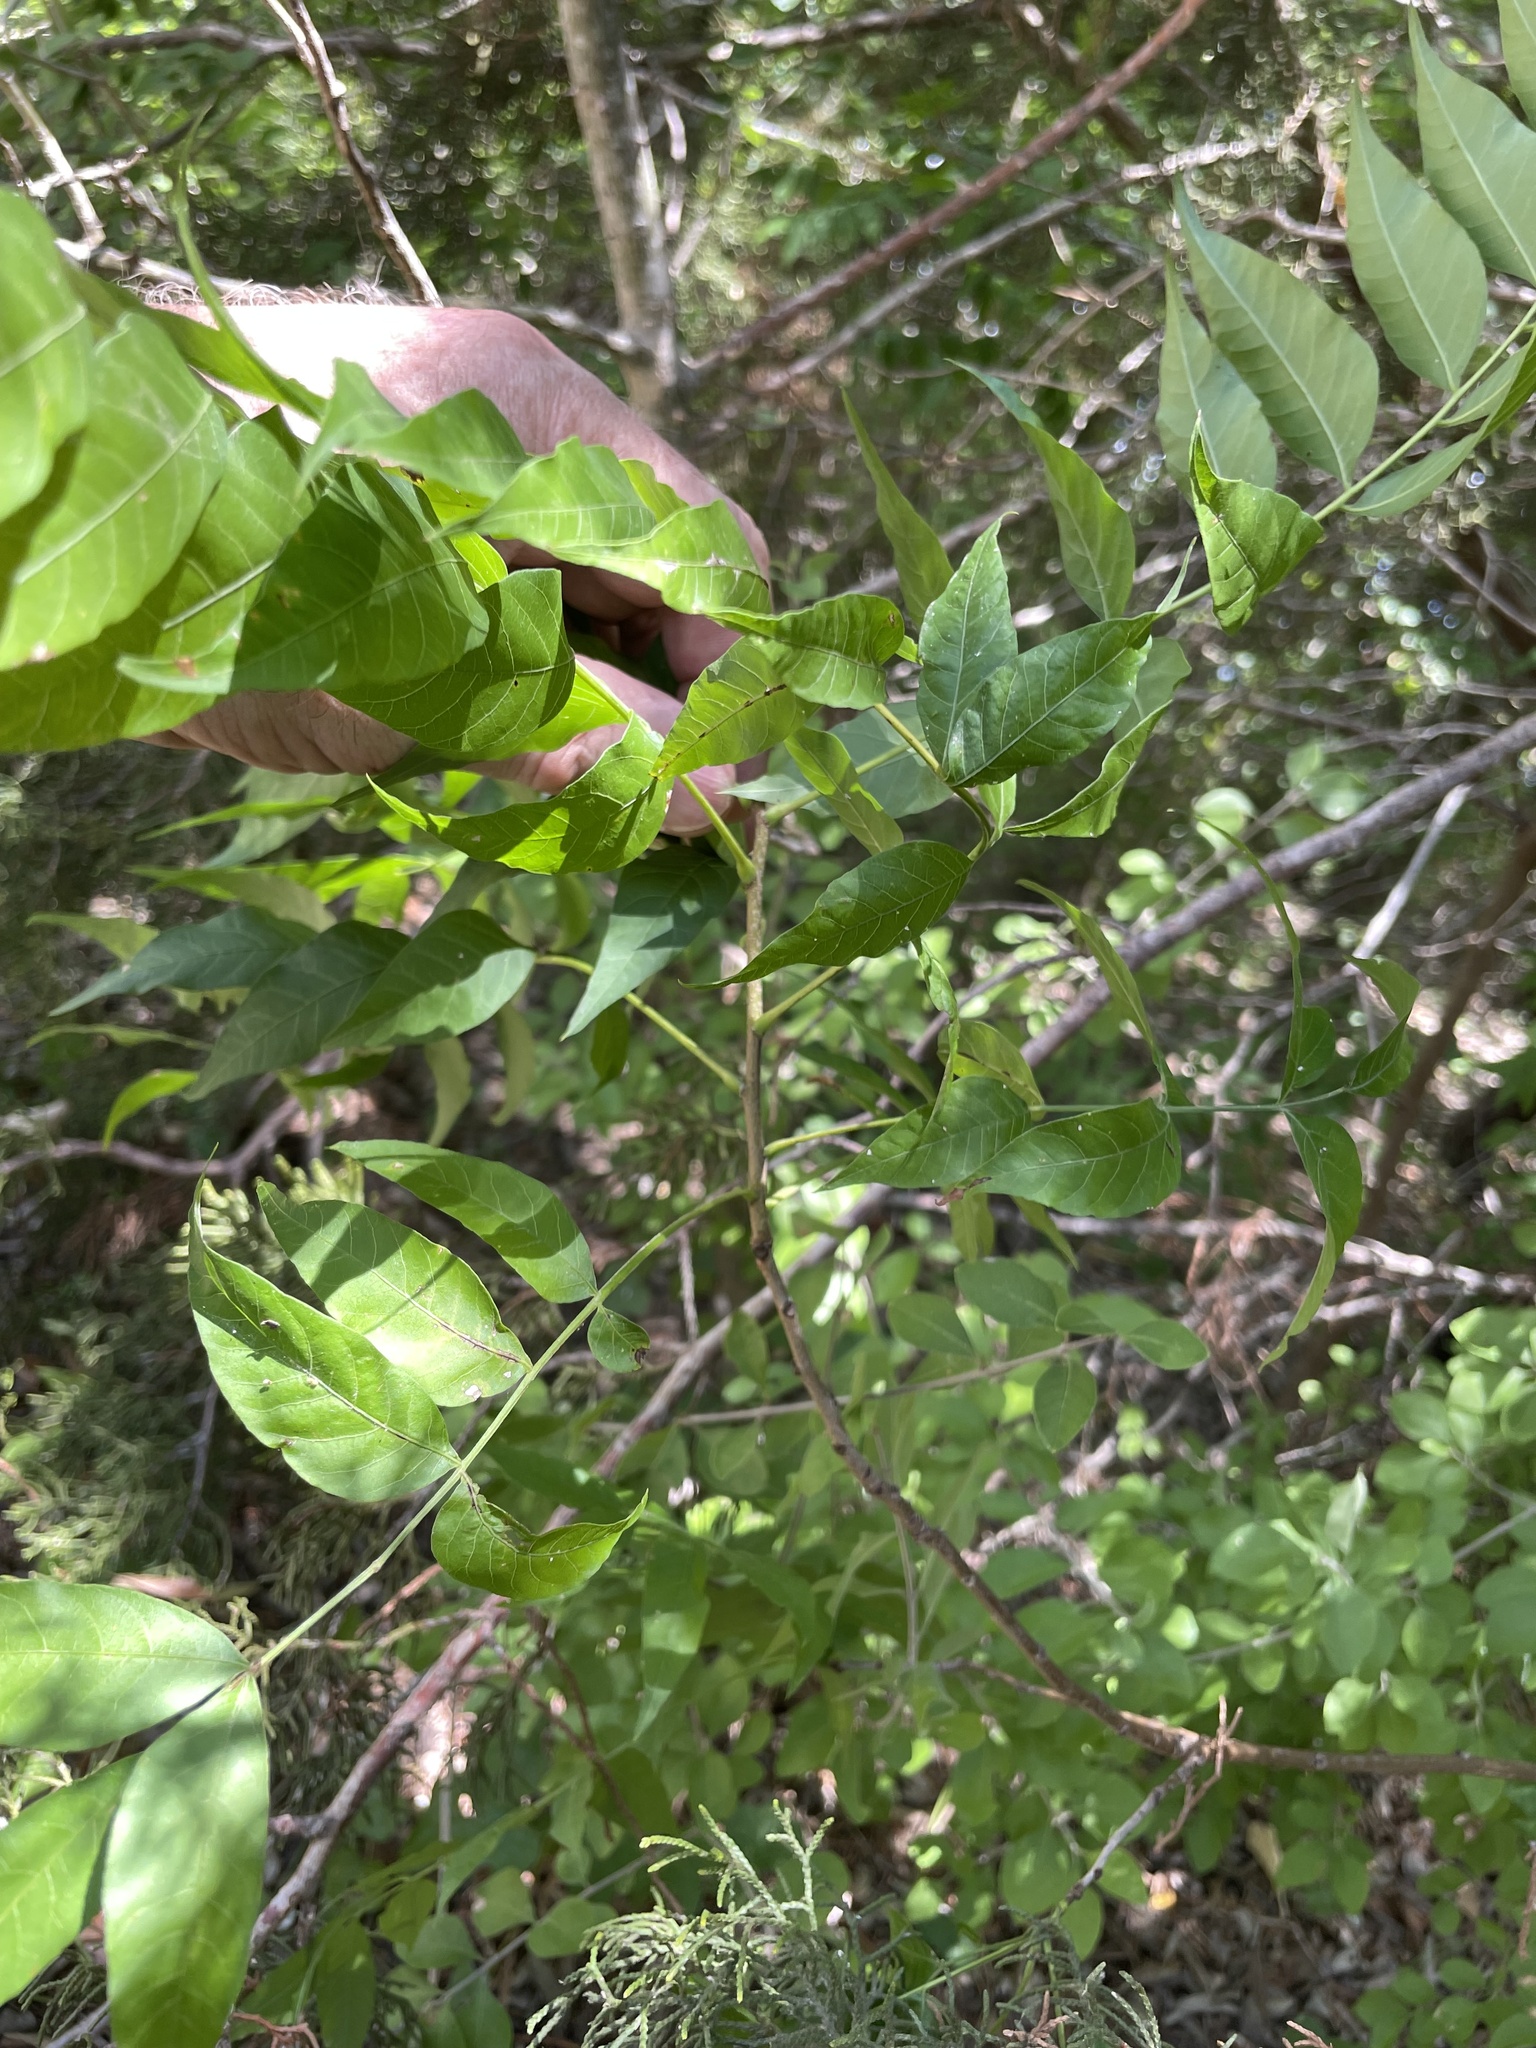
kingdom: Plantae
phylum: Tracheophyta
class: Magnoliopsida
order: Sapindales
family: Anacardiaceae
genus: Pistacia
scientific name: Pistacia chinensis
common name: Chinese pistache
